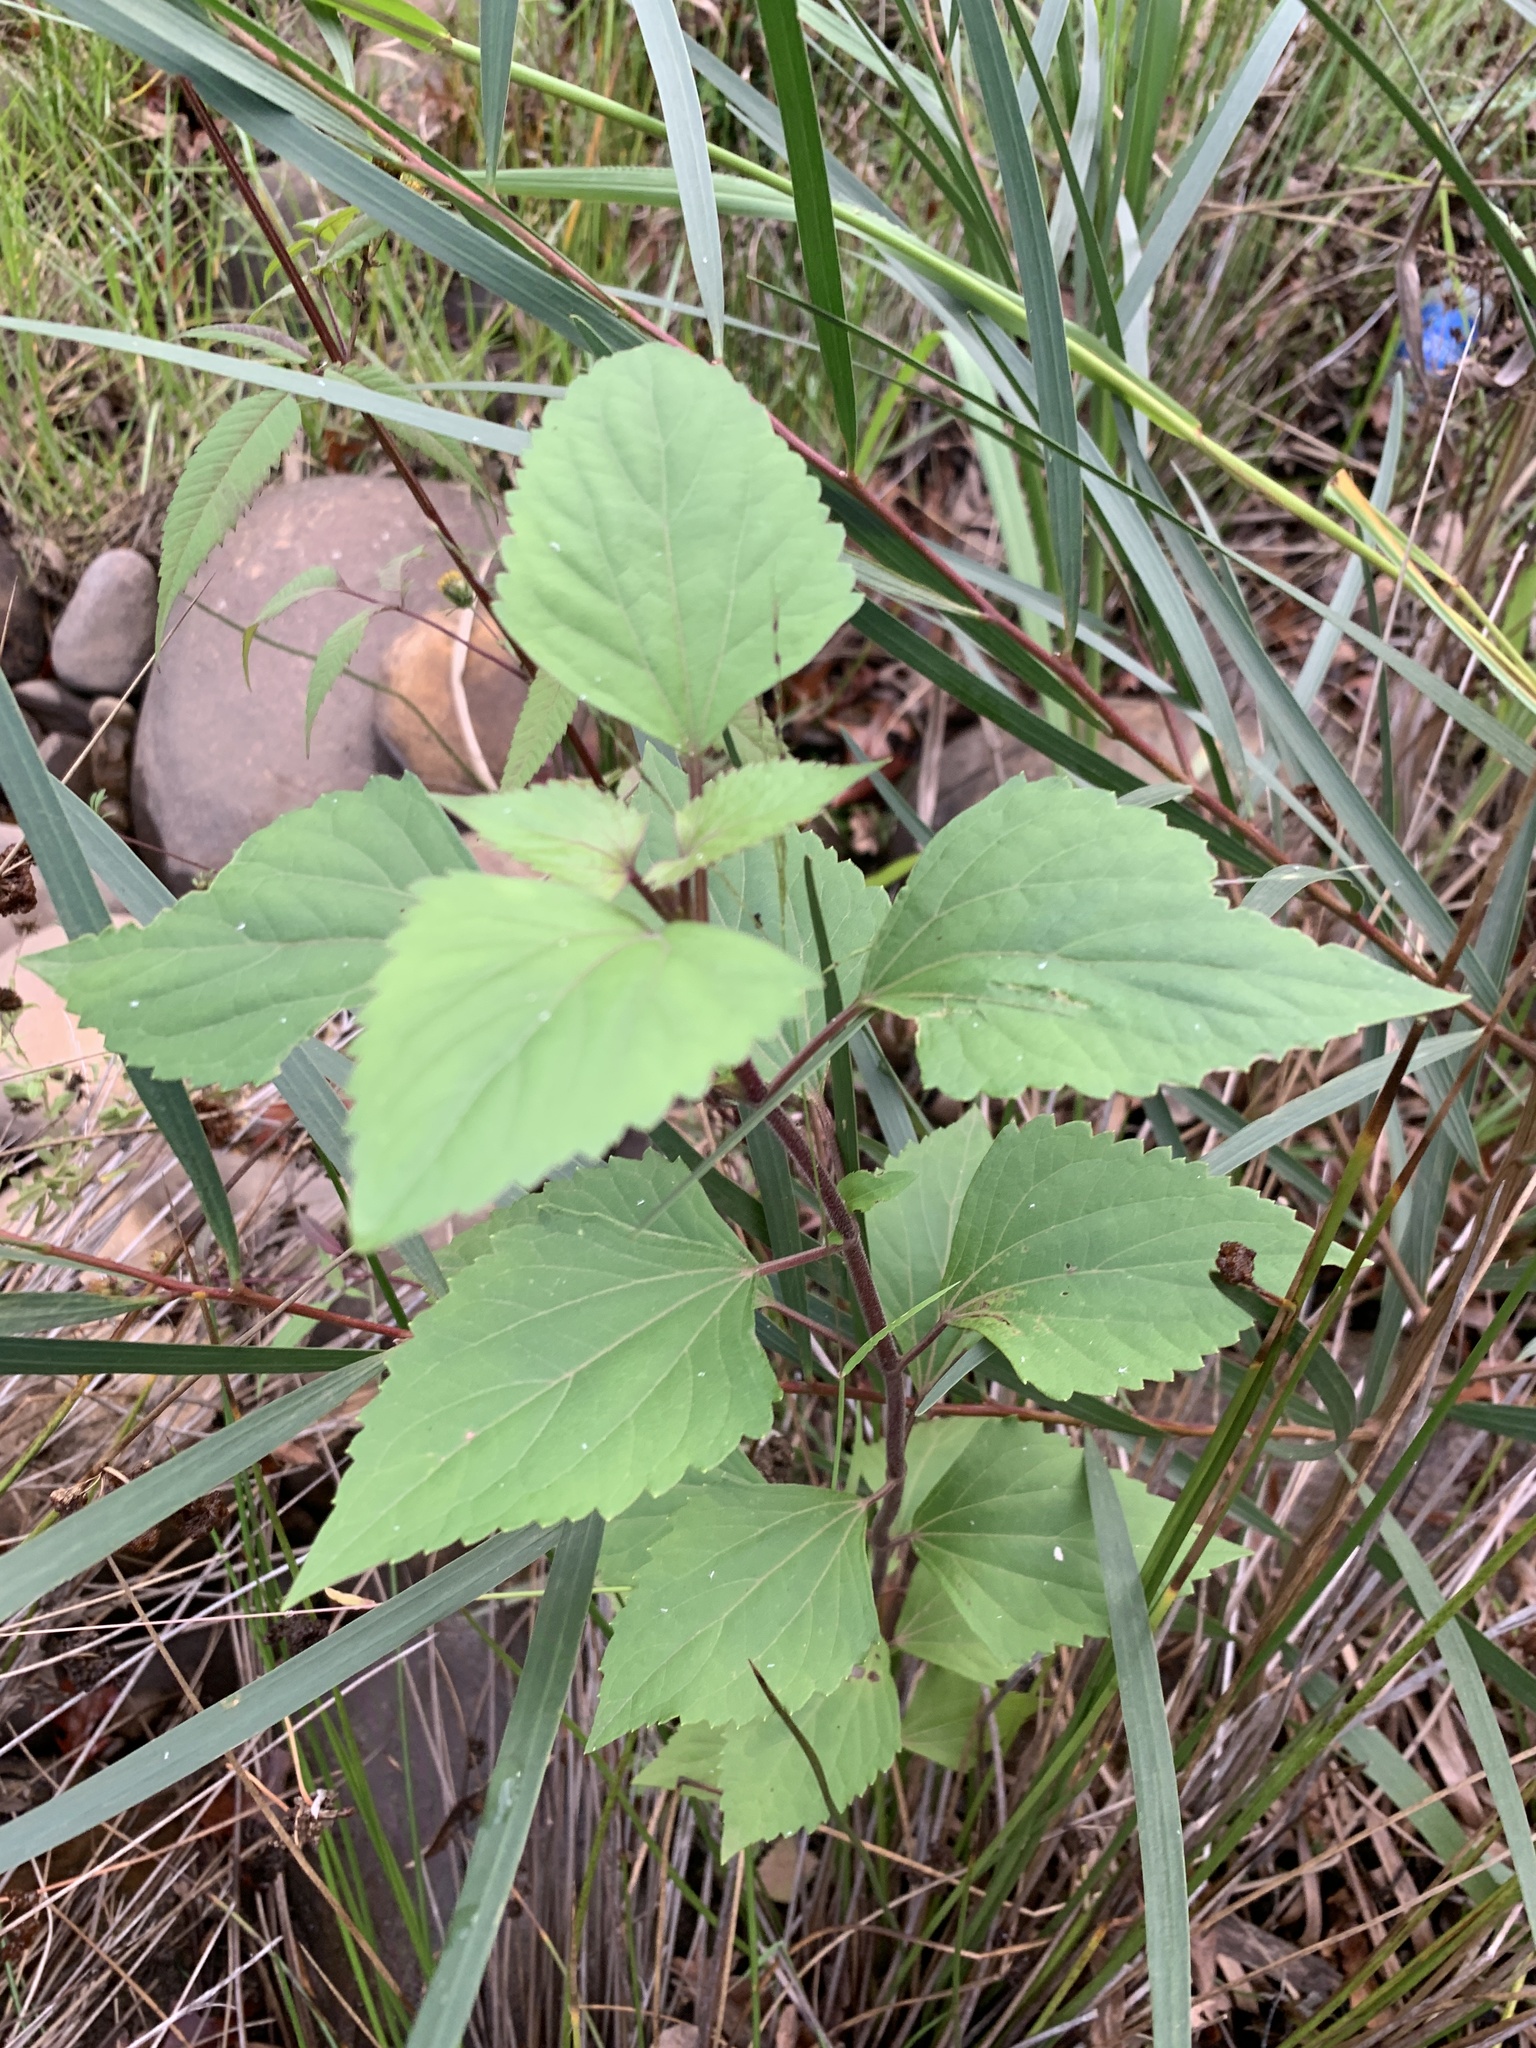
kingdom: Plantae
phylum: Tracheophyta
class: Magnoliopsida
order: Asterales
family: Asteraceae
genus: Ageratina
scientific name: Ageratina adenophora
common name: Sticky snakeroot
